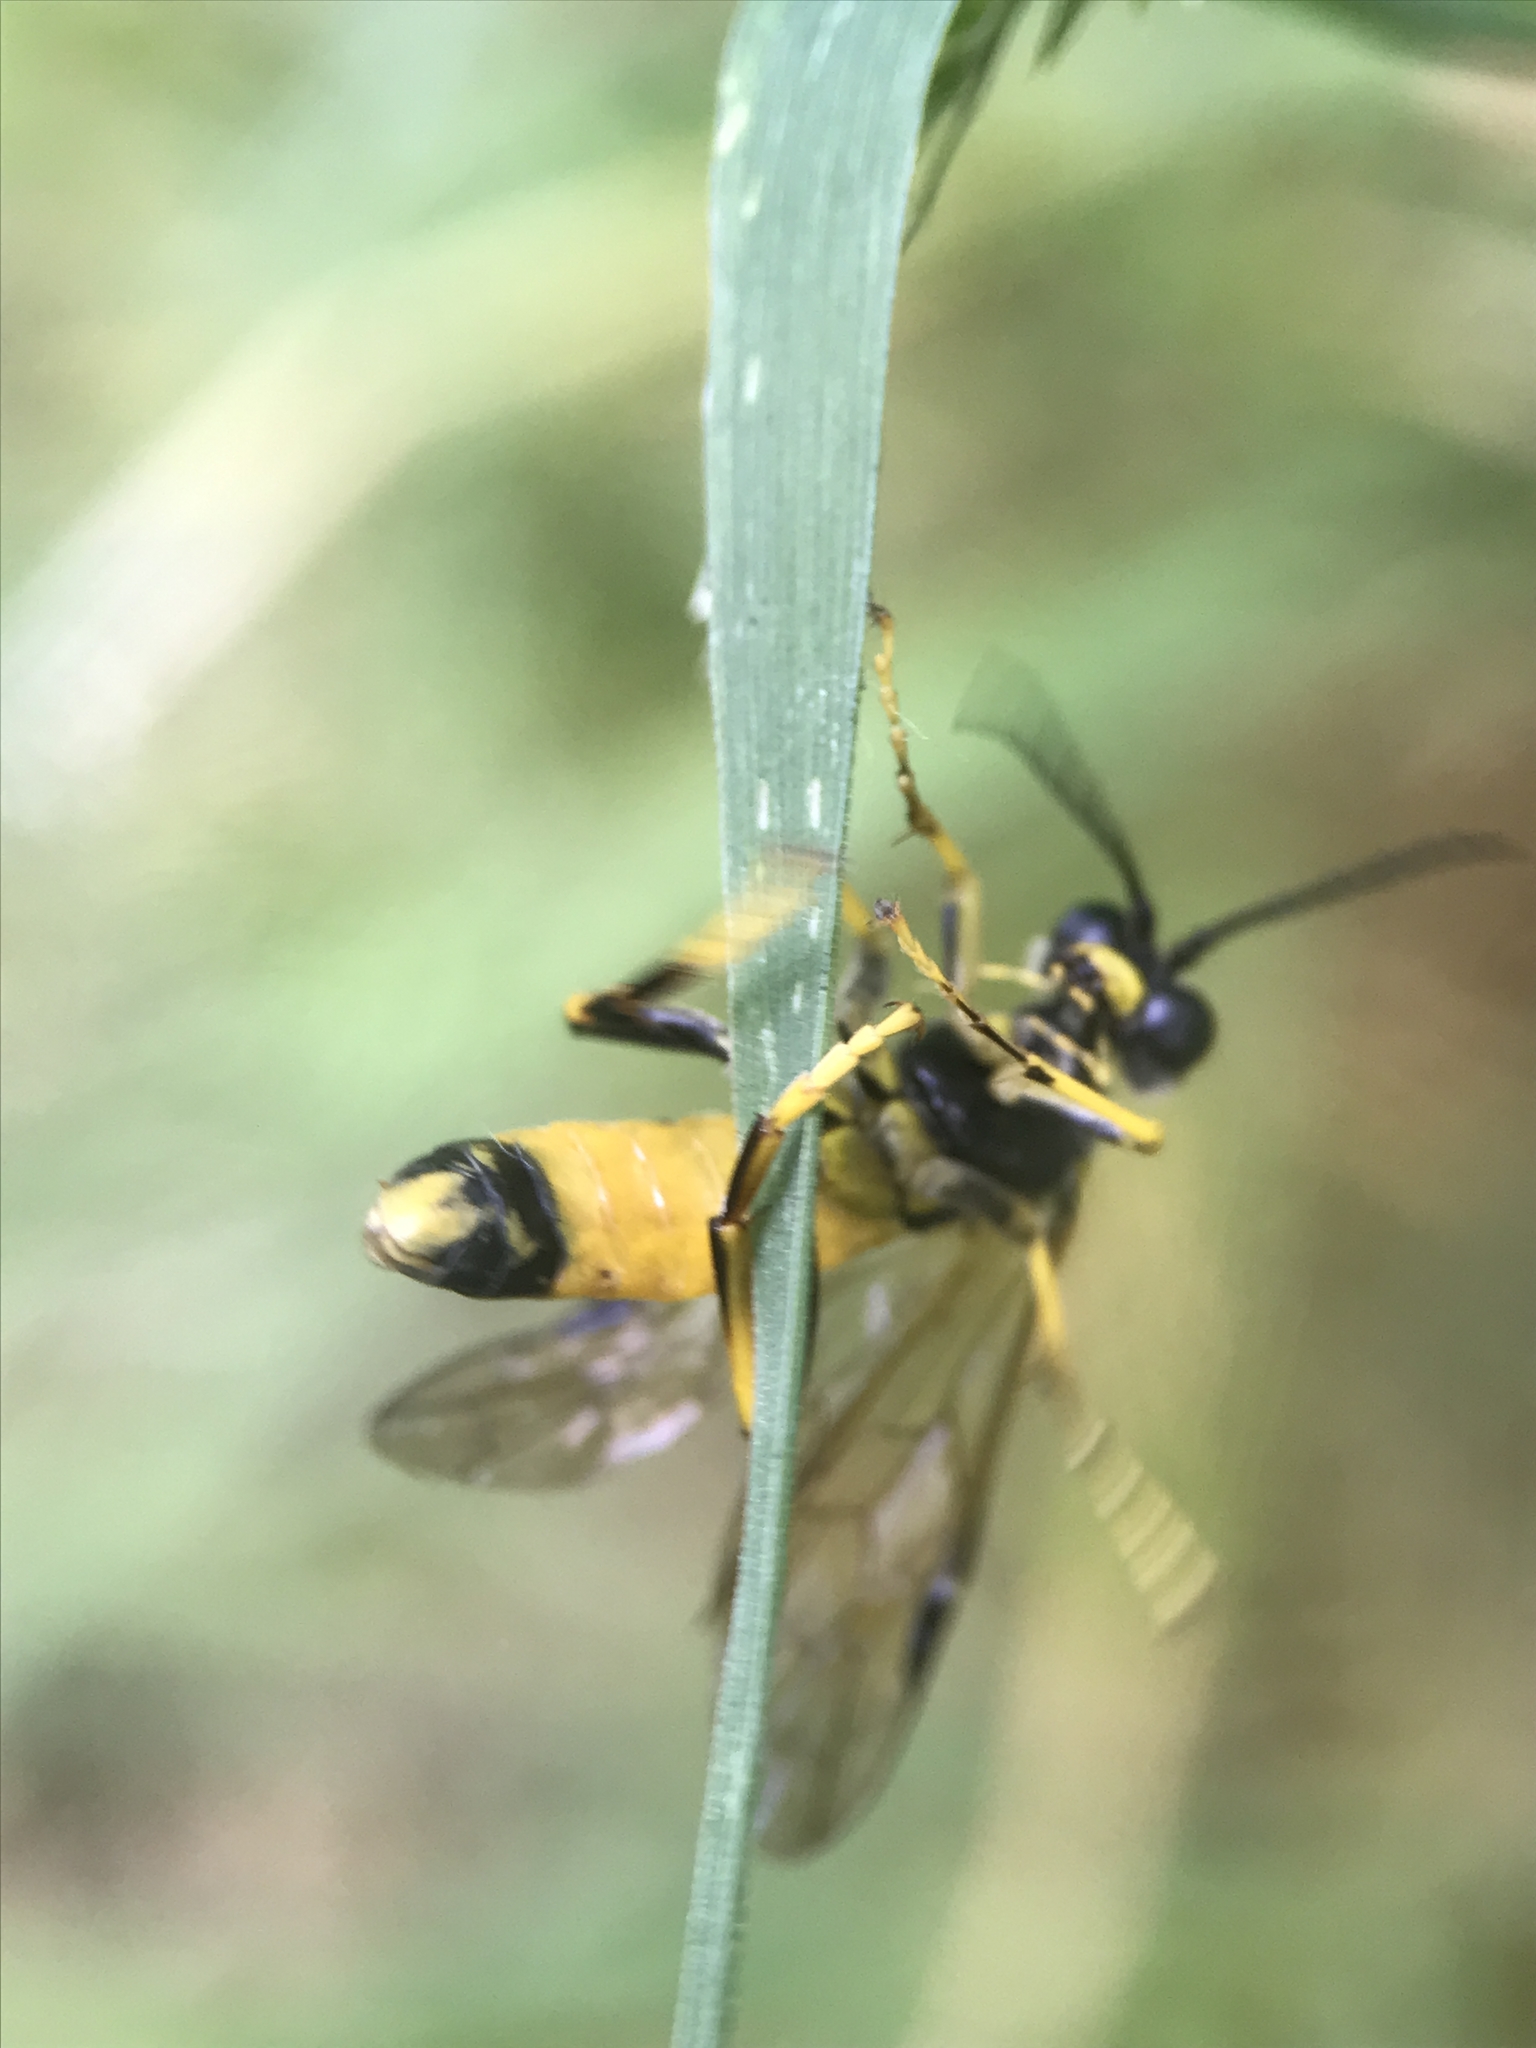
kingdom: Animalia
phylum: Arthropoda
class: Insecta
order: Hymenoptera
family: Tenthredinidae
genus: Tenthredo
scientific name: Tenthredo maculata
